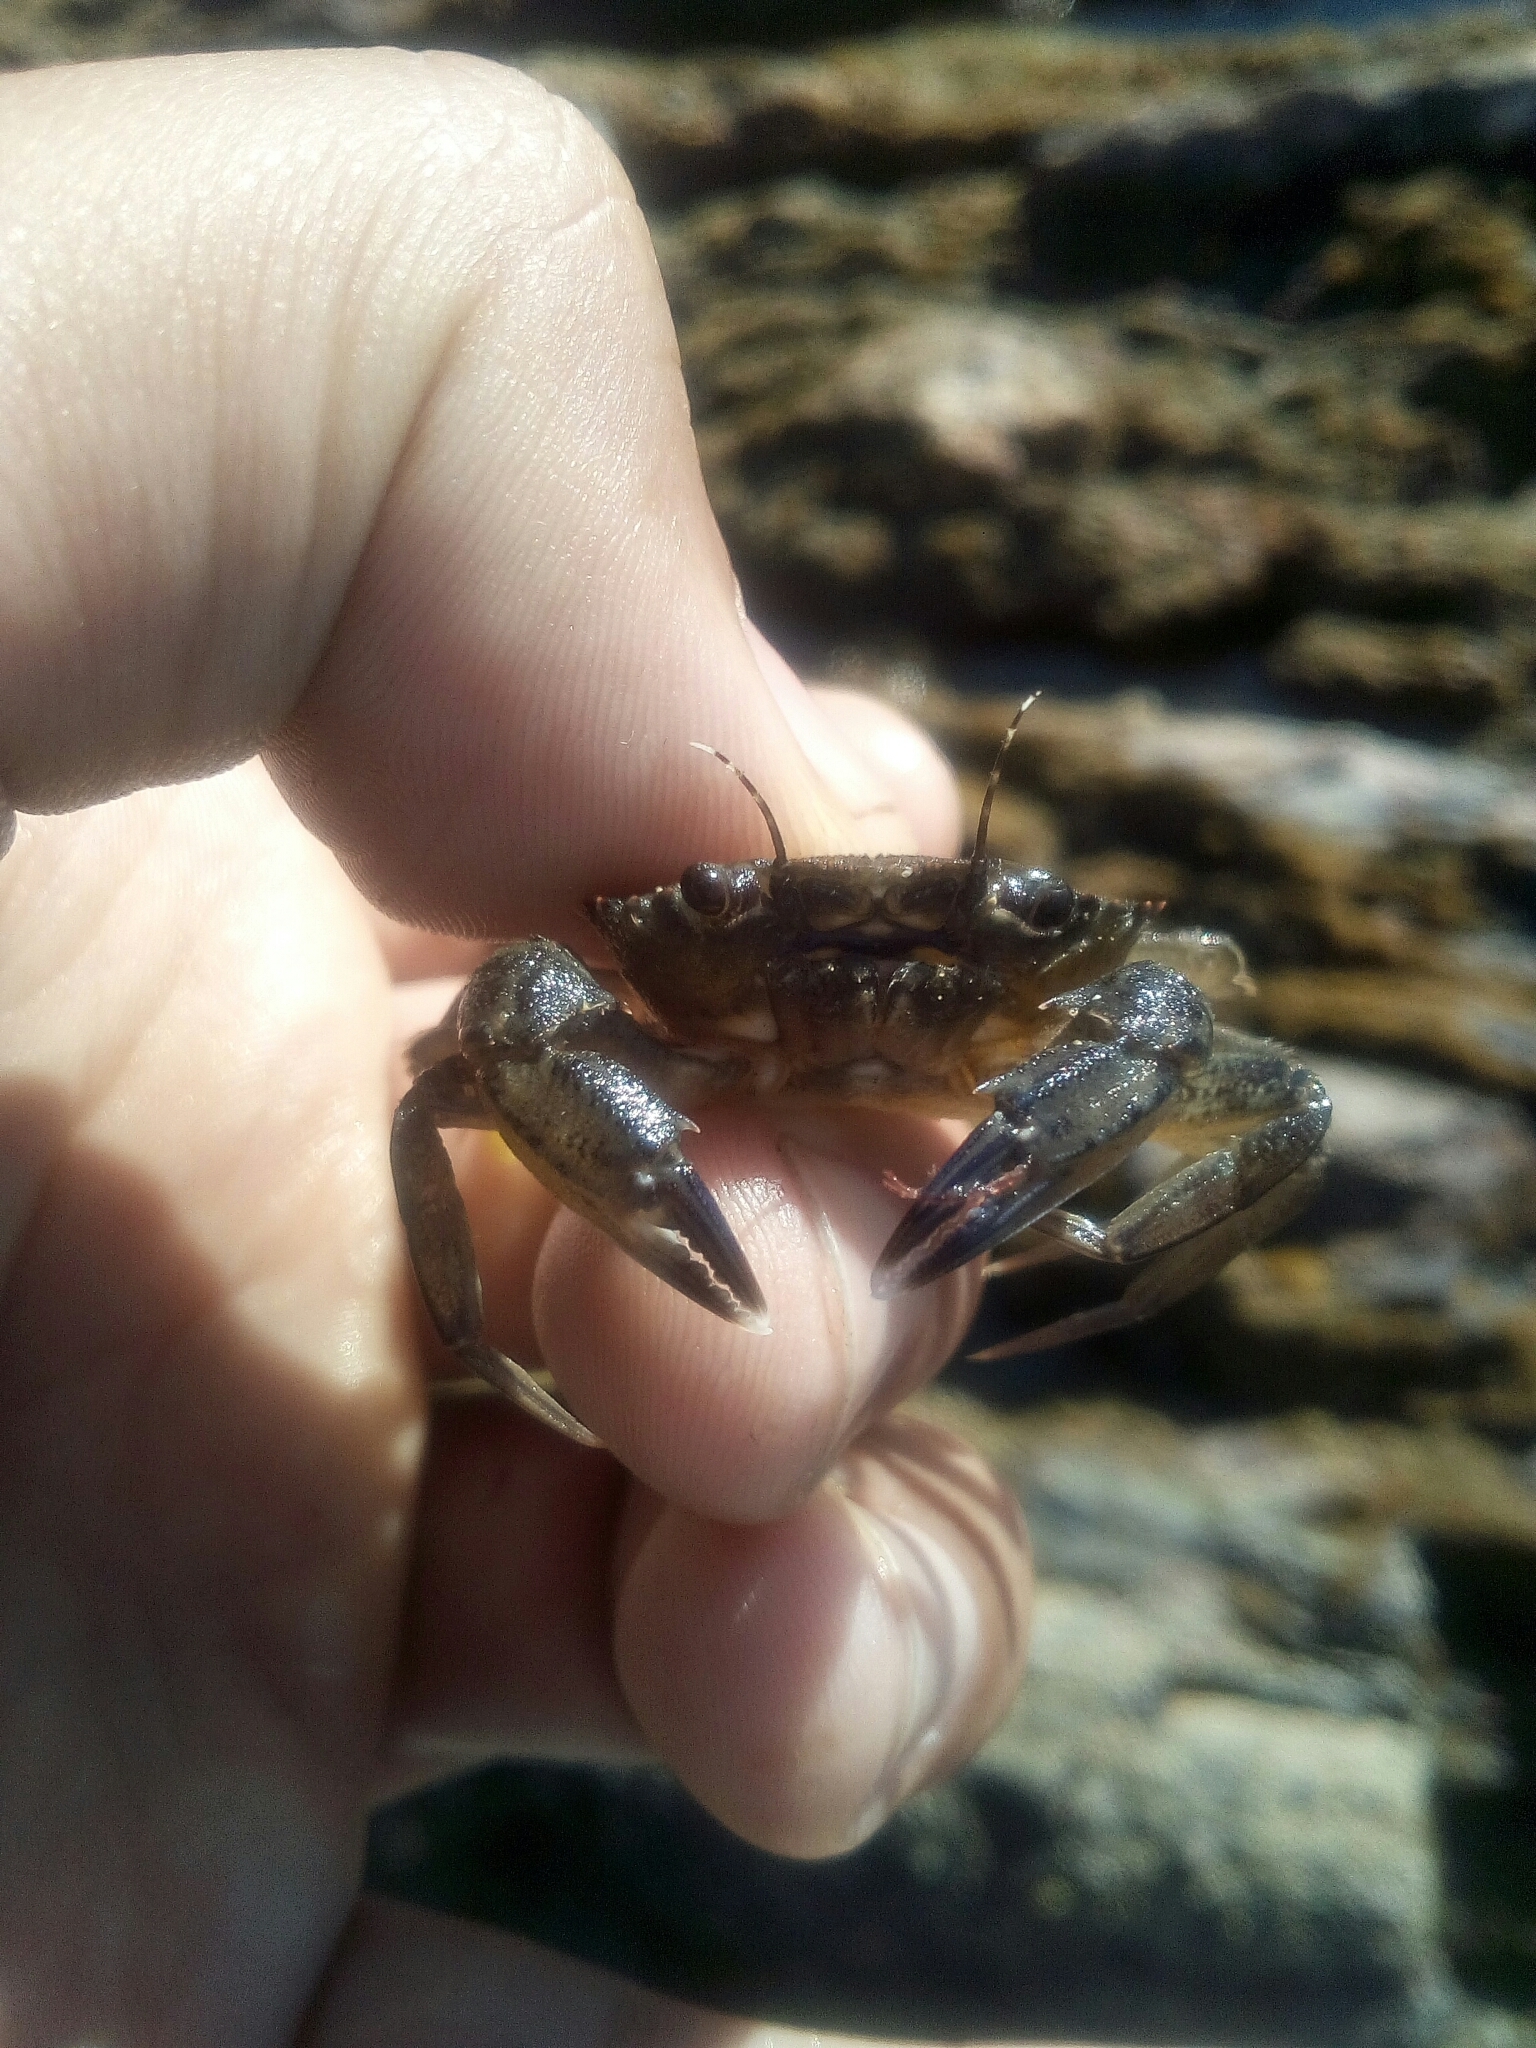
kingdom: Animalia
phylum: Arthropoda
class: Malacostraca
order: Decapoda
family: Polybiidae
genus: Necora
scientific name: Necora puber
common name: Velvet swimming crab
